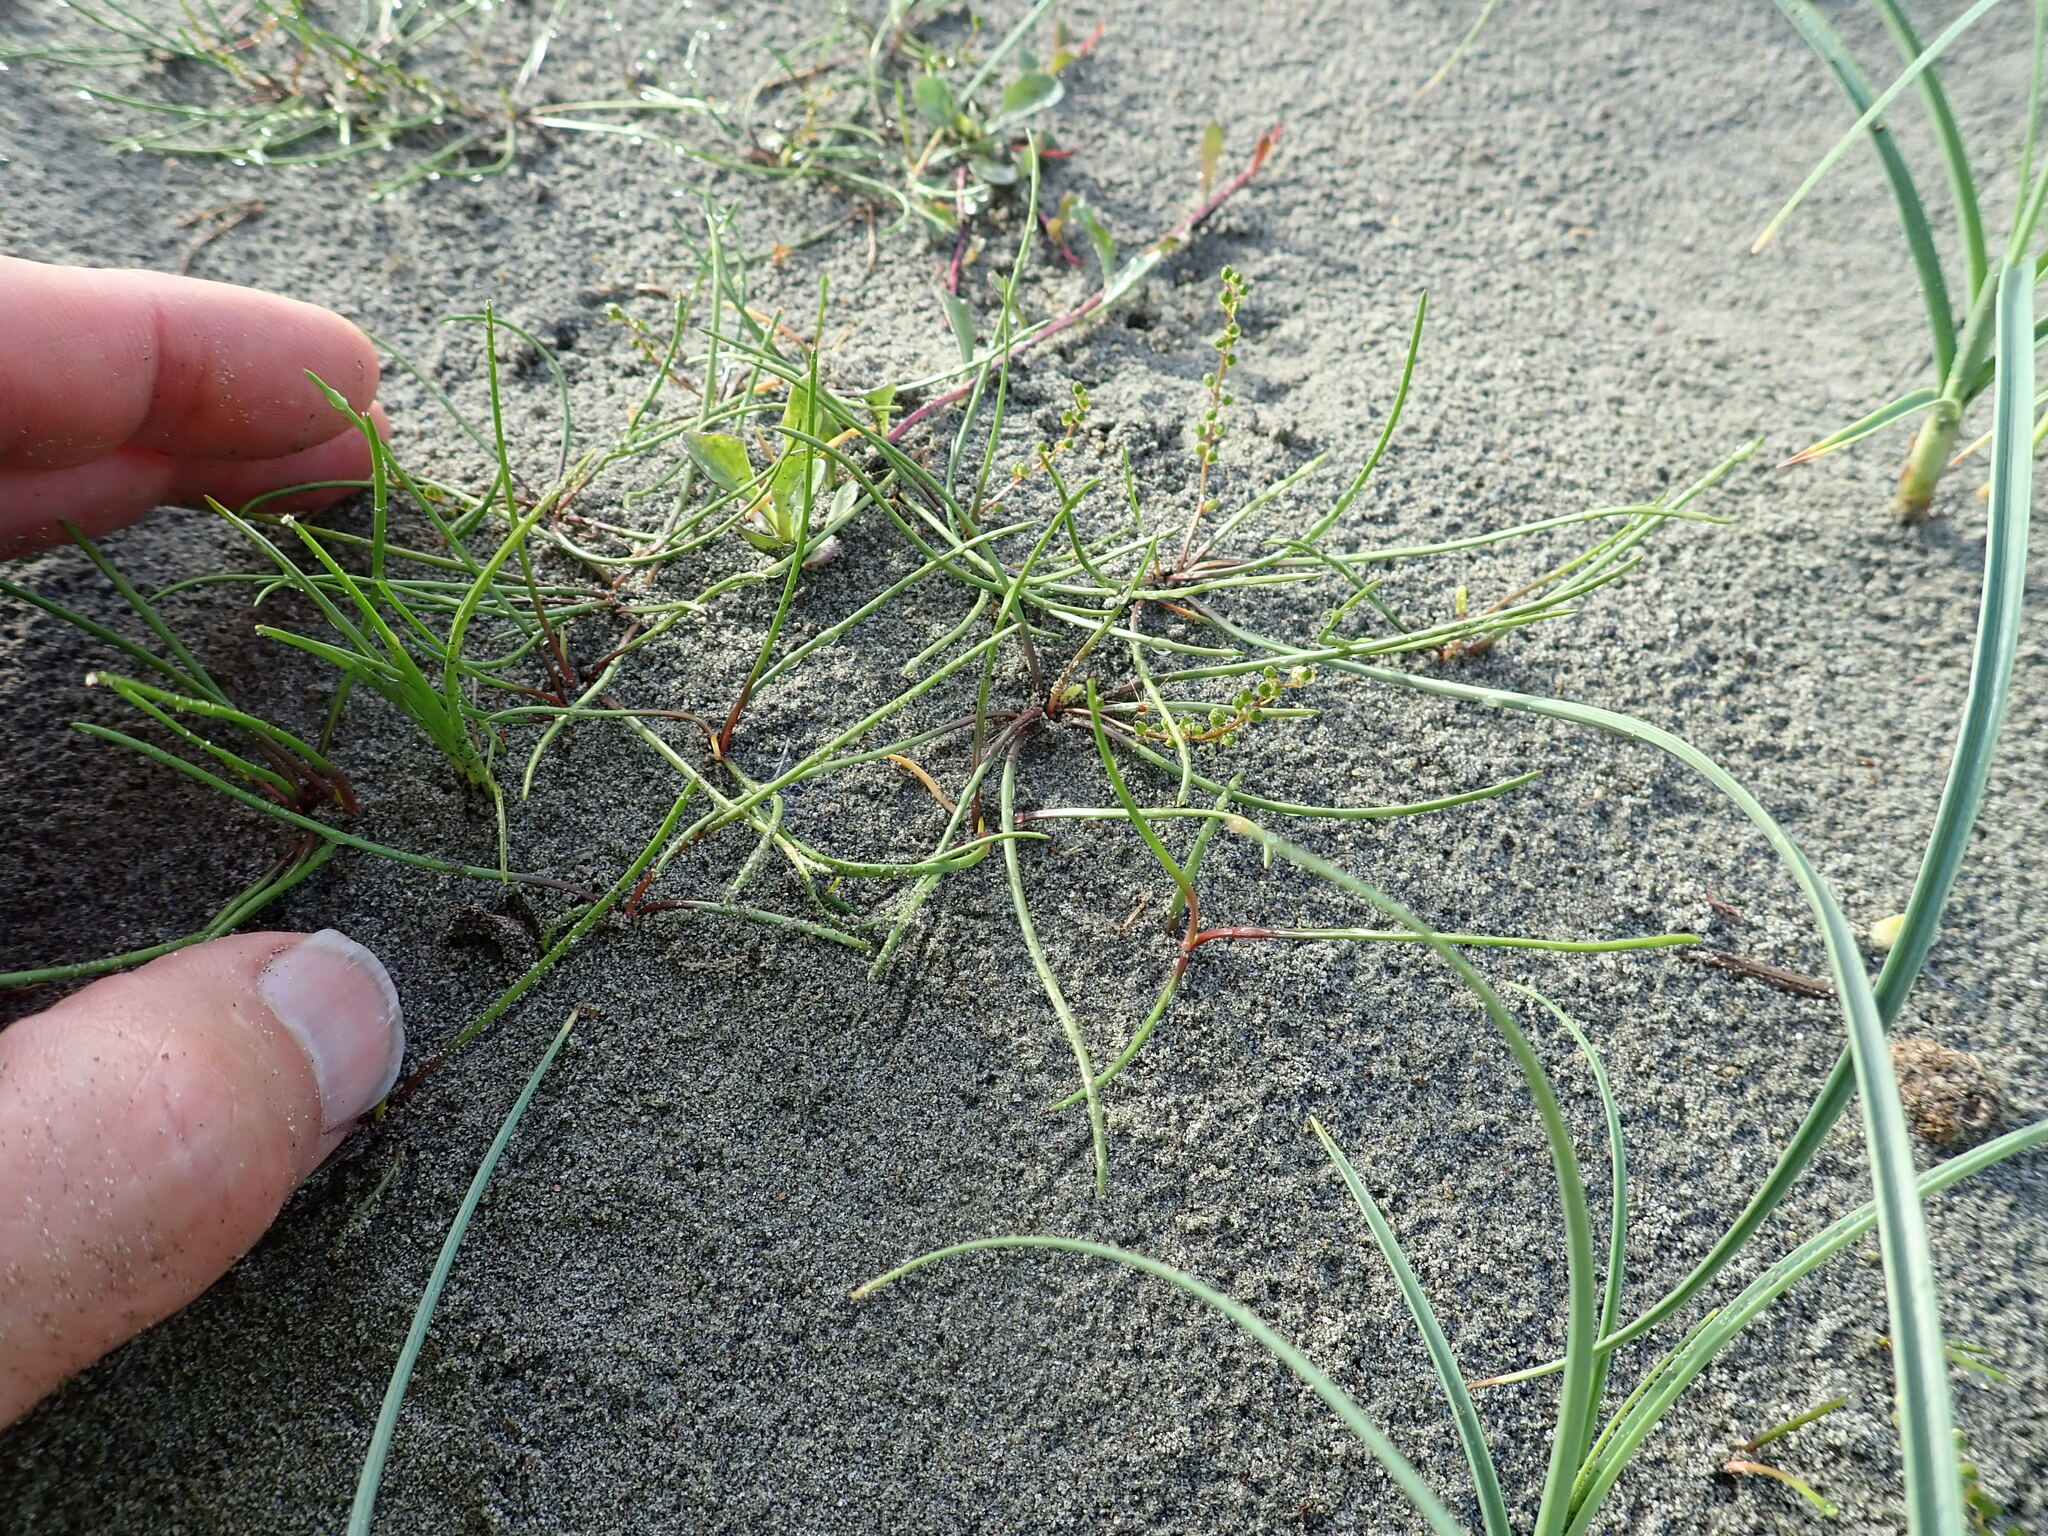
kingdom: Plantae
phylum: Tracheophyta
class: Liliopsida
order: Alismatales
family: Juncaginaceae
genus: Triglochin
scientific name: Triglochin striata
